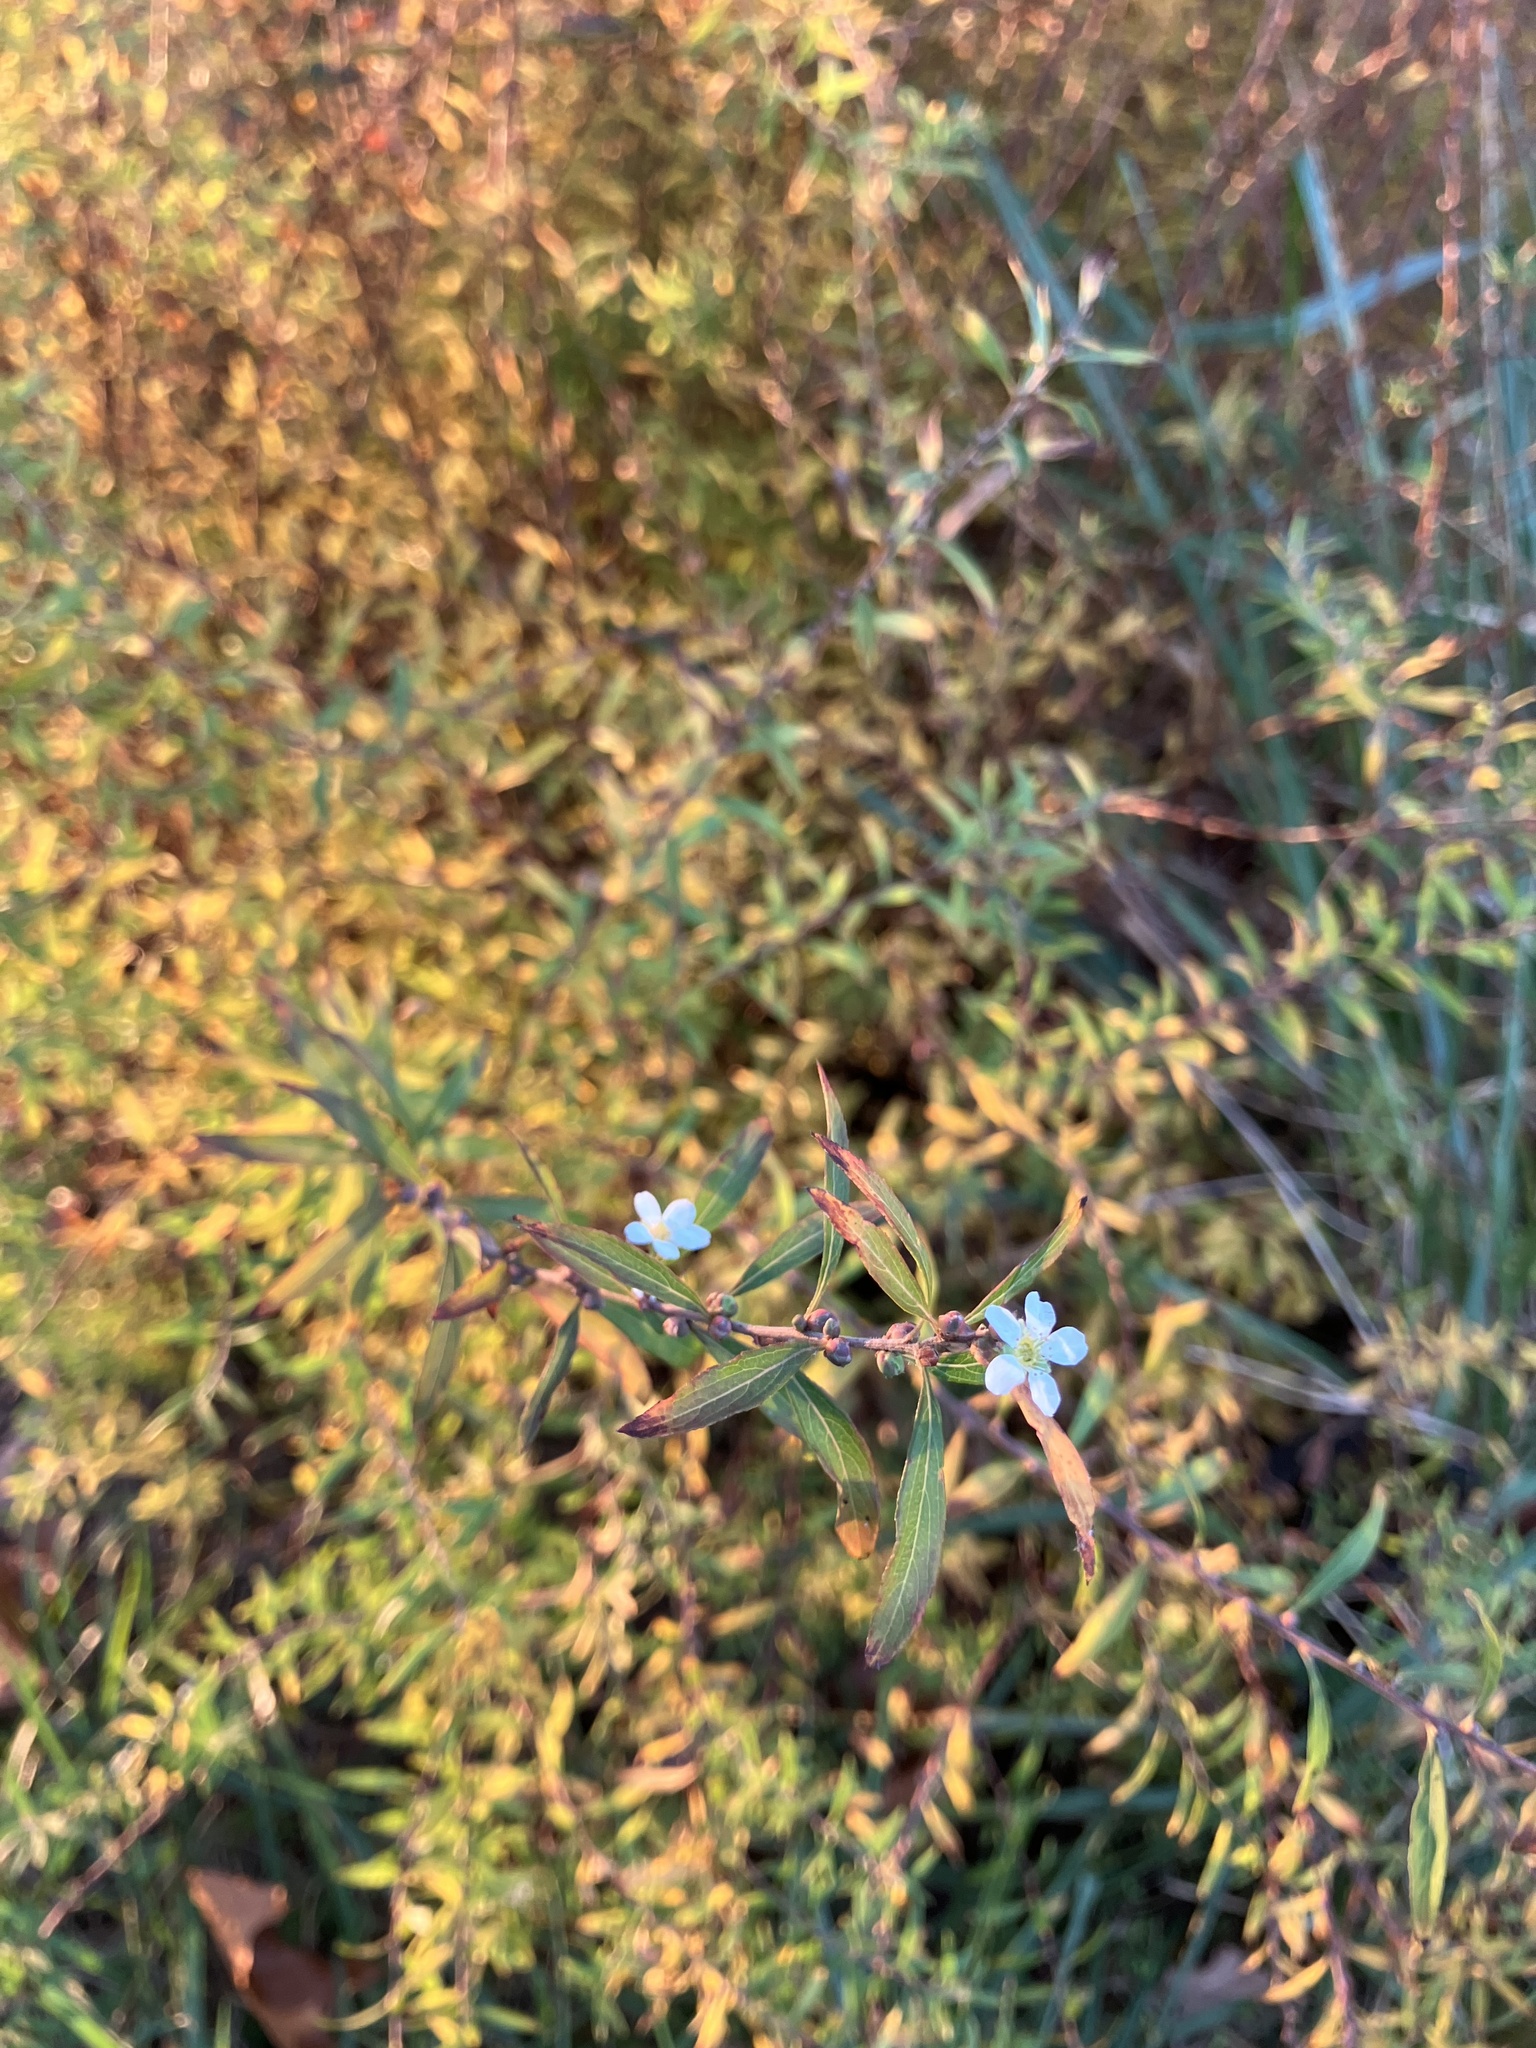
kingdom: Plantae
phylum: Tracheophyta
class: Magnoliopsida
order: Rosales
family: Rosaceae
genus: Spiraea
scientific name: Spiraea thunbergii
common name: Thunberg's meadowsweet
